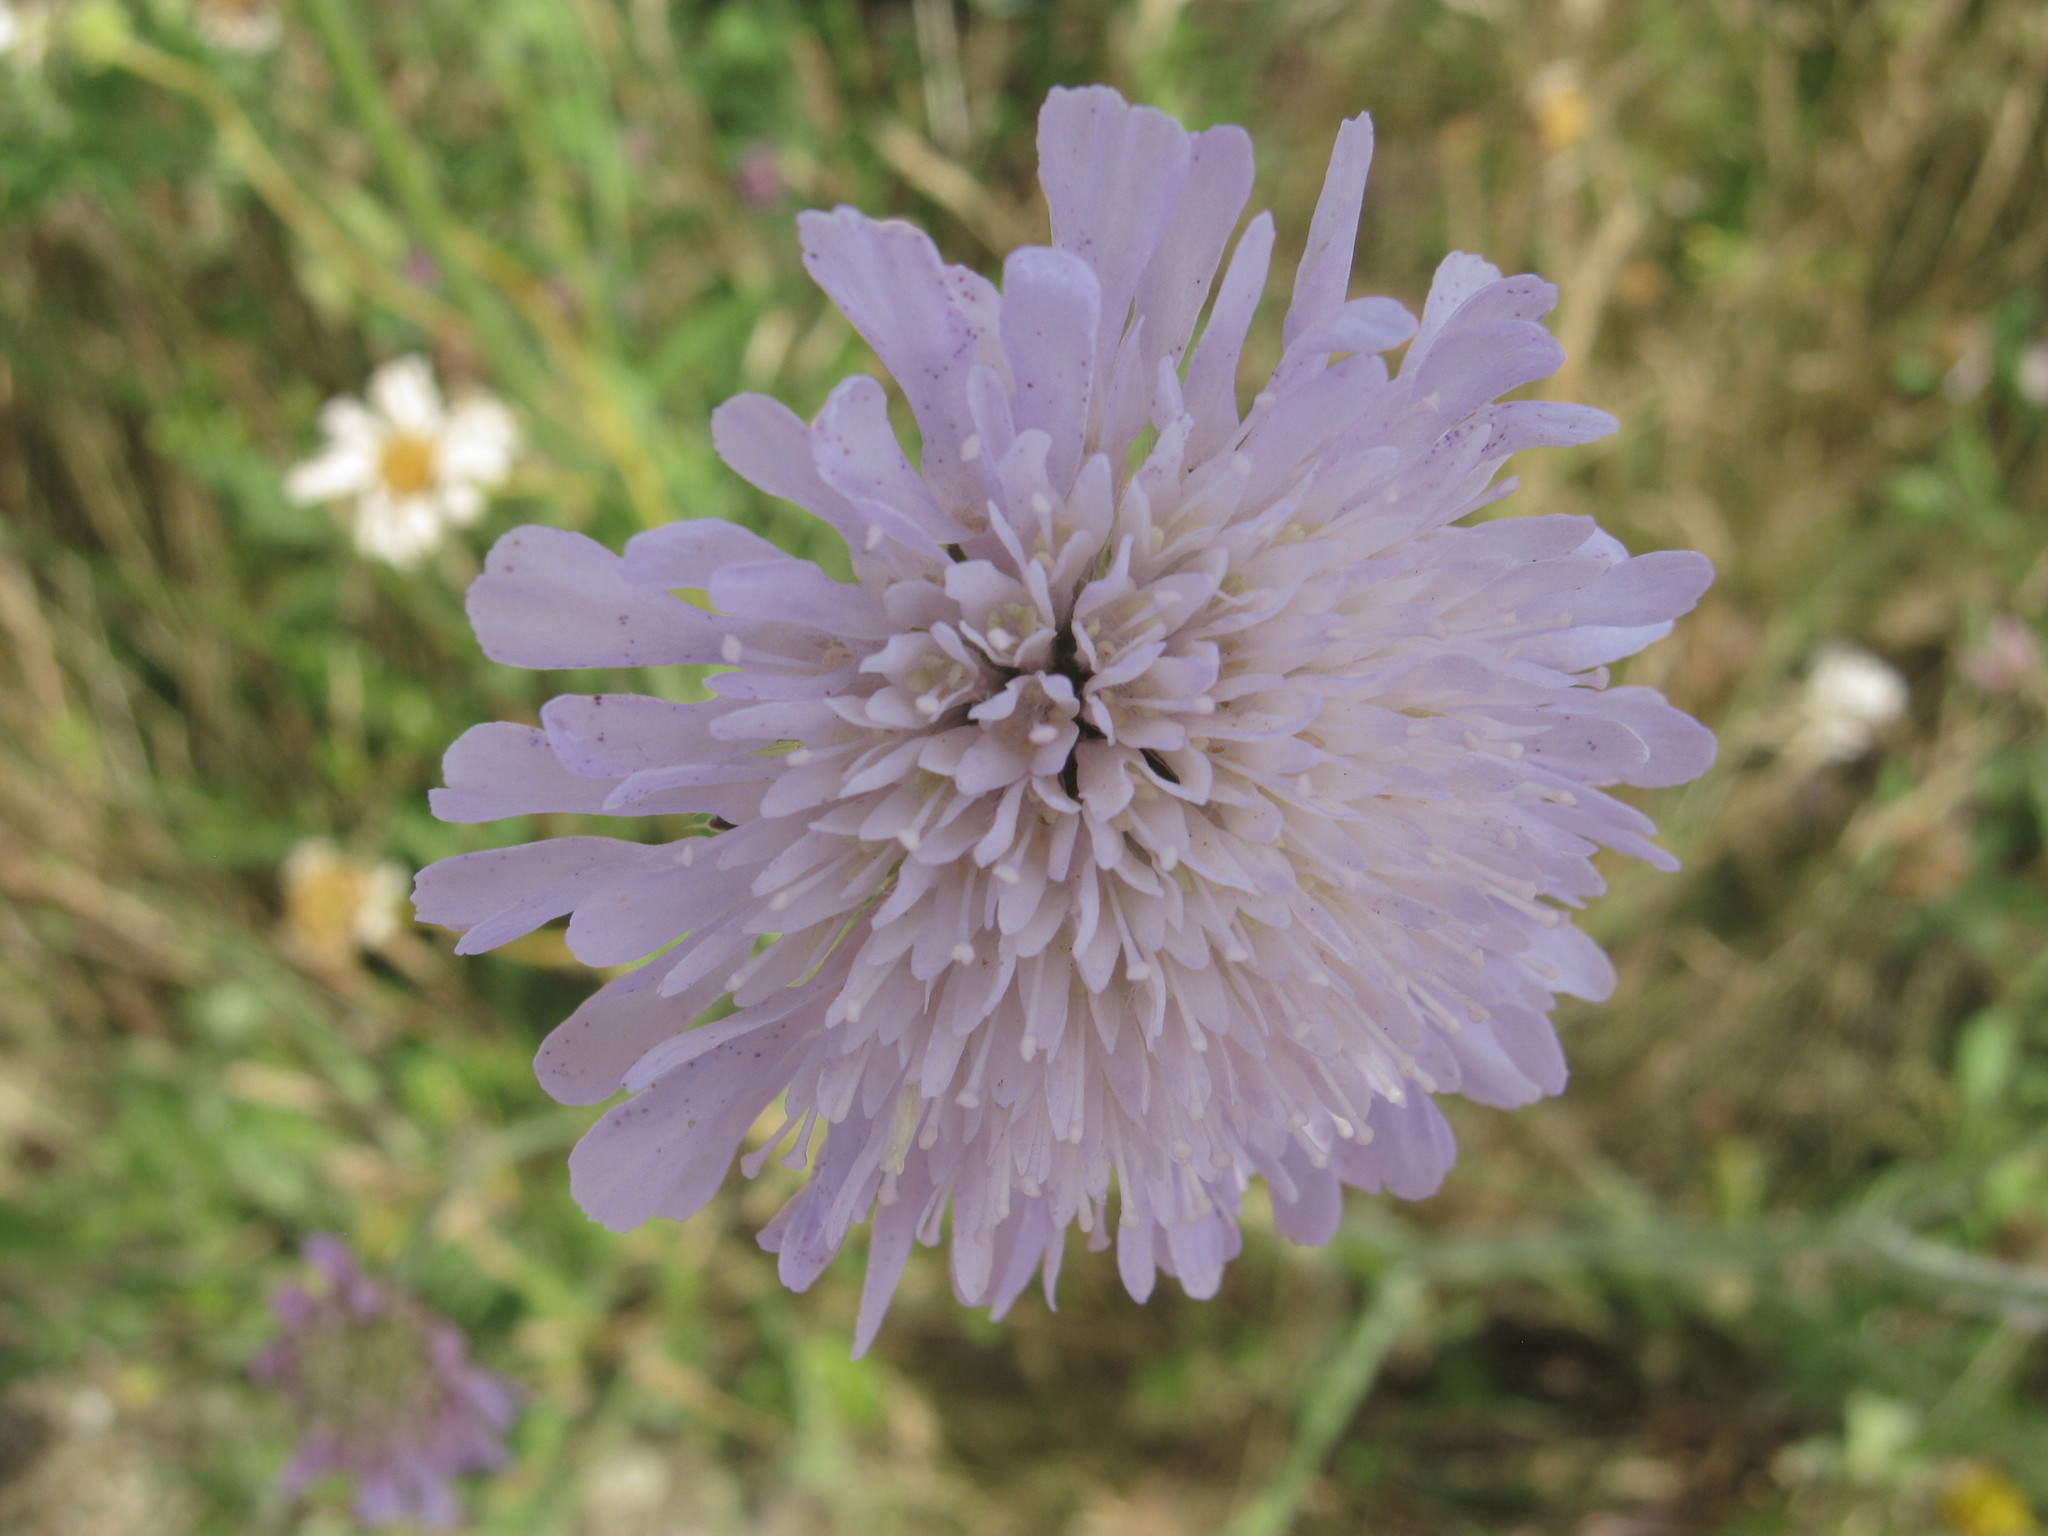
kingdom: Plantae
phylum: Tracheophyta
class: Magnoliopsida
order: Dipsacales
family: Caprifoliaceae
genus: Knautia
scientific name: Knautia arvensis
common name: Field scabiosa
